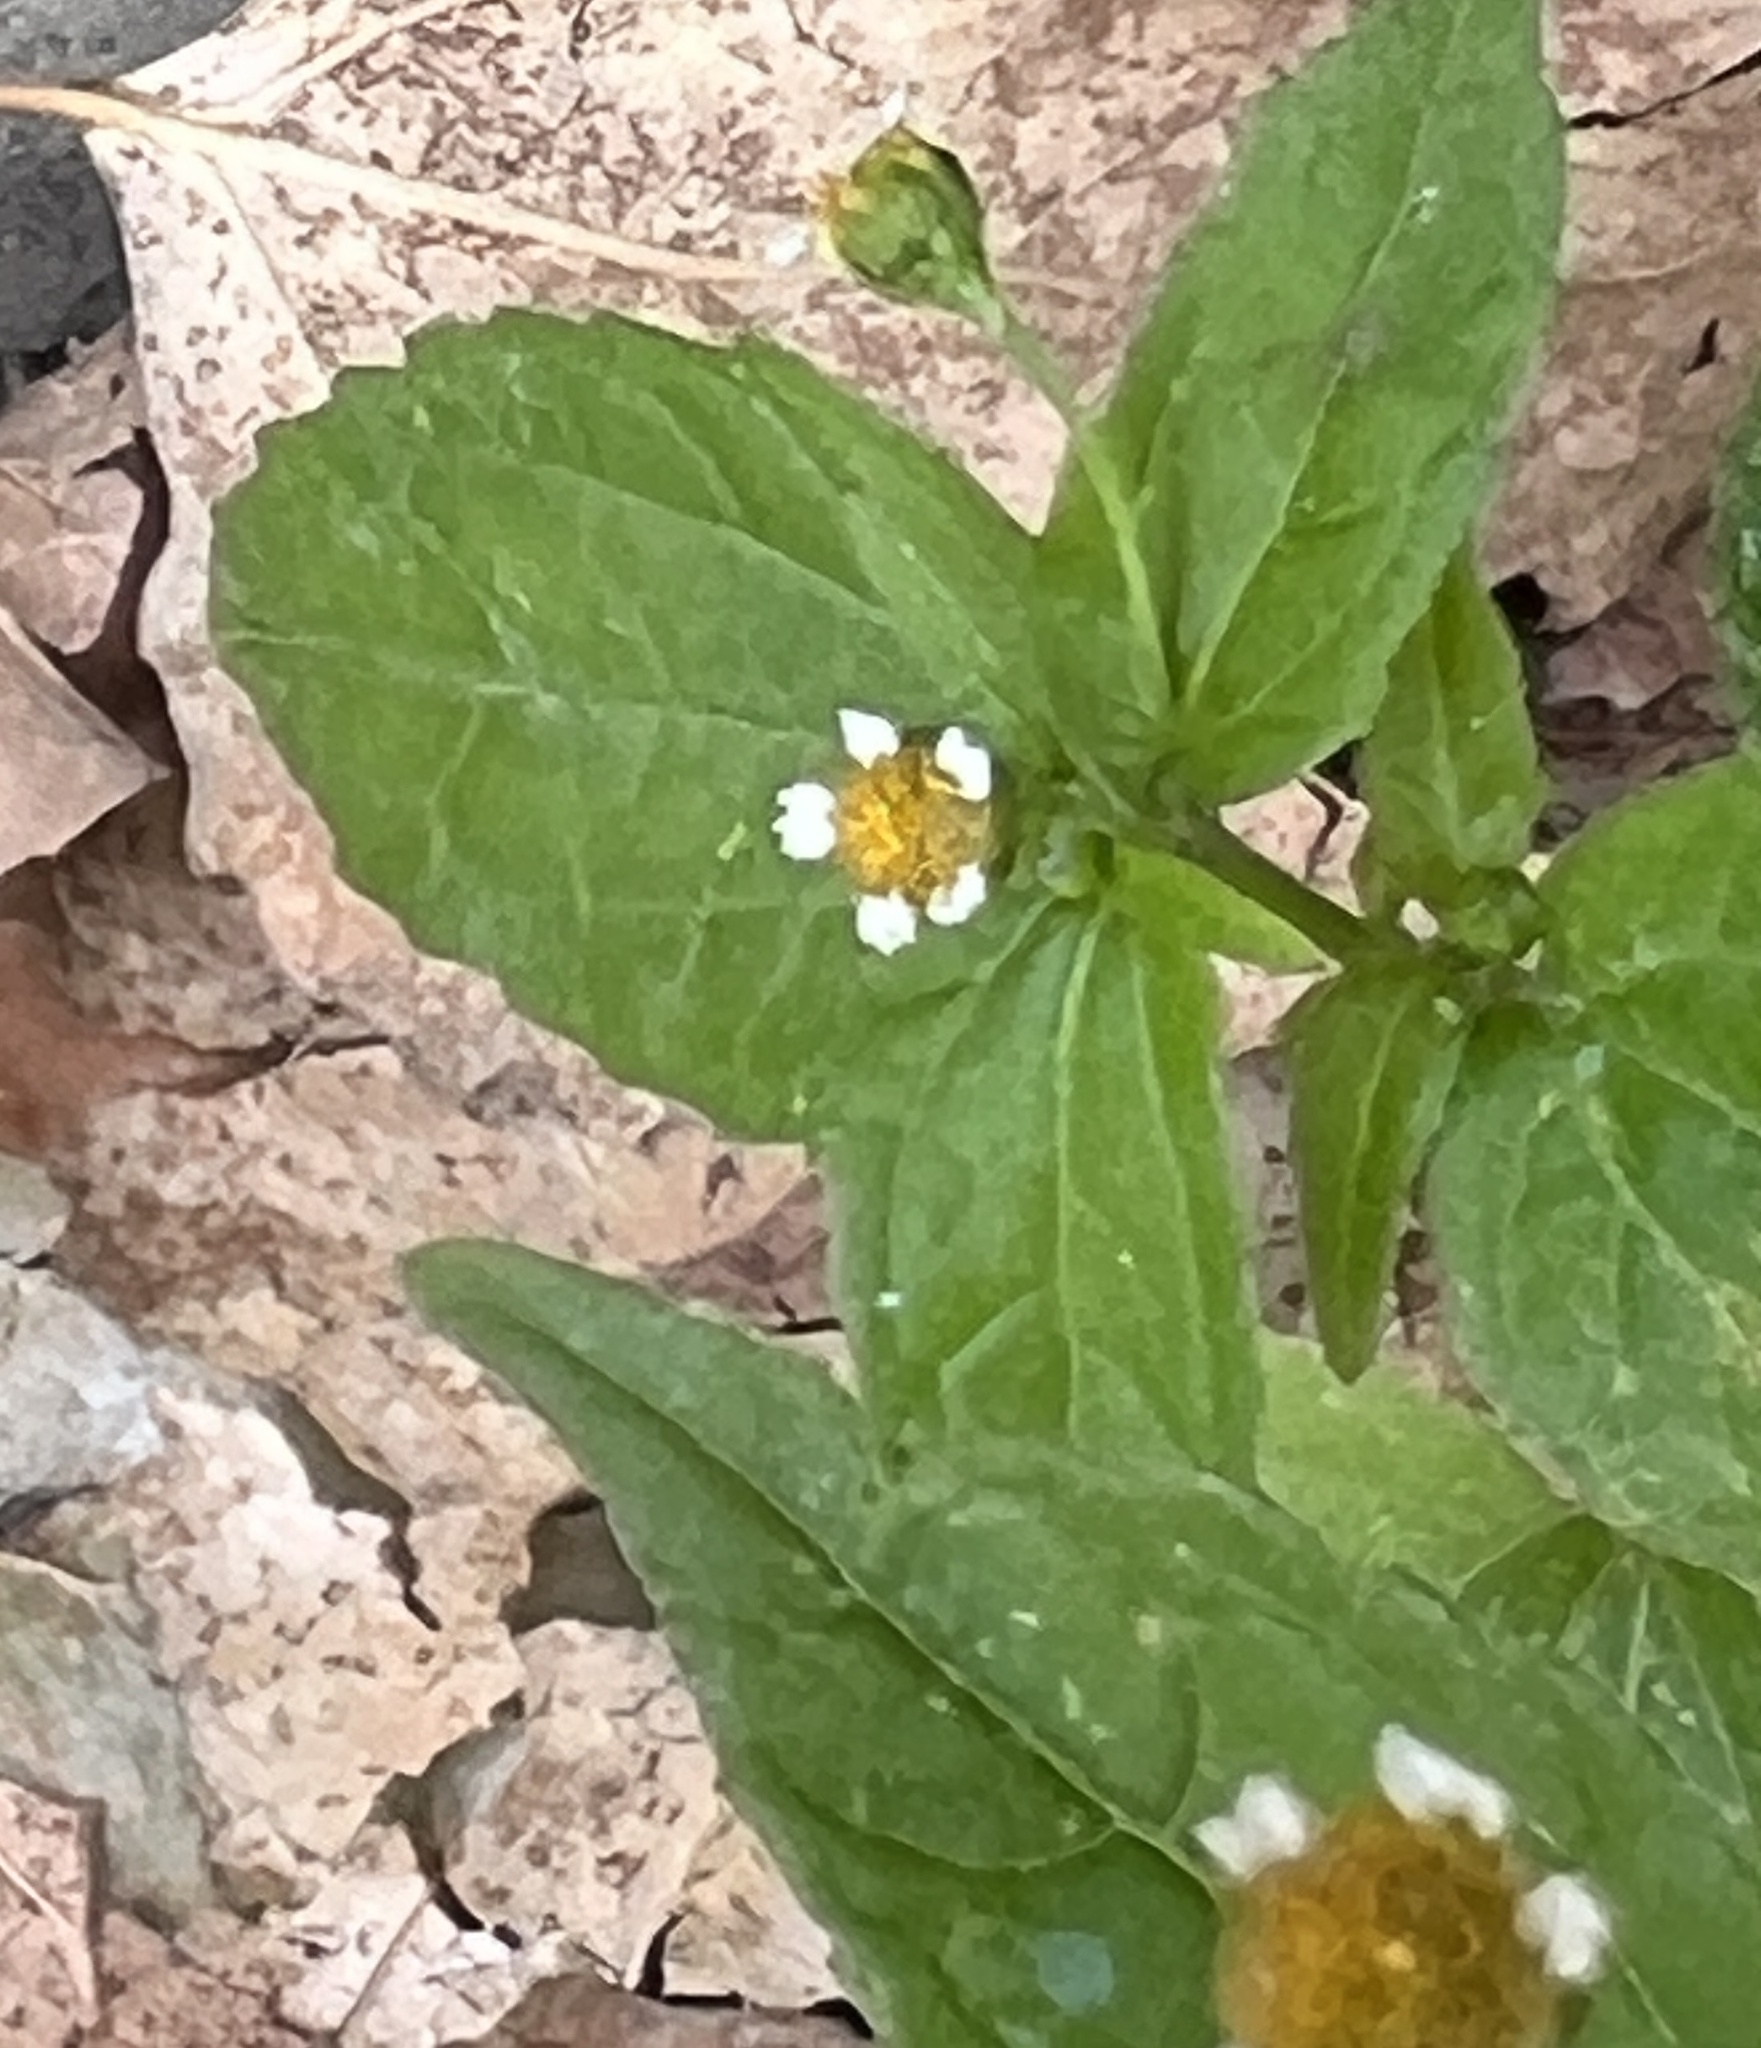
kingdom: Plantae
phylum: Tracheophyta
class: Magnoliopsida
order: Asterales
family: Asteraceae
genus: Galinsoga
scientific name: Galinsoga parviflora
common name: Gallant soldier
